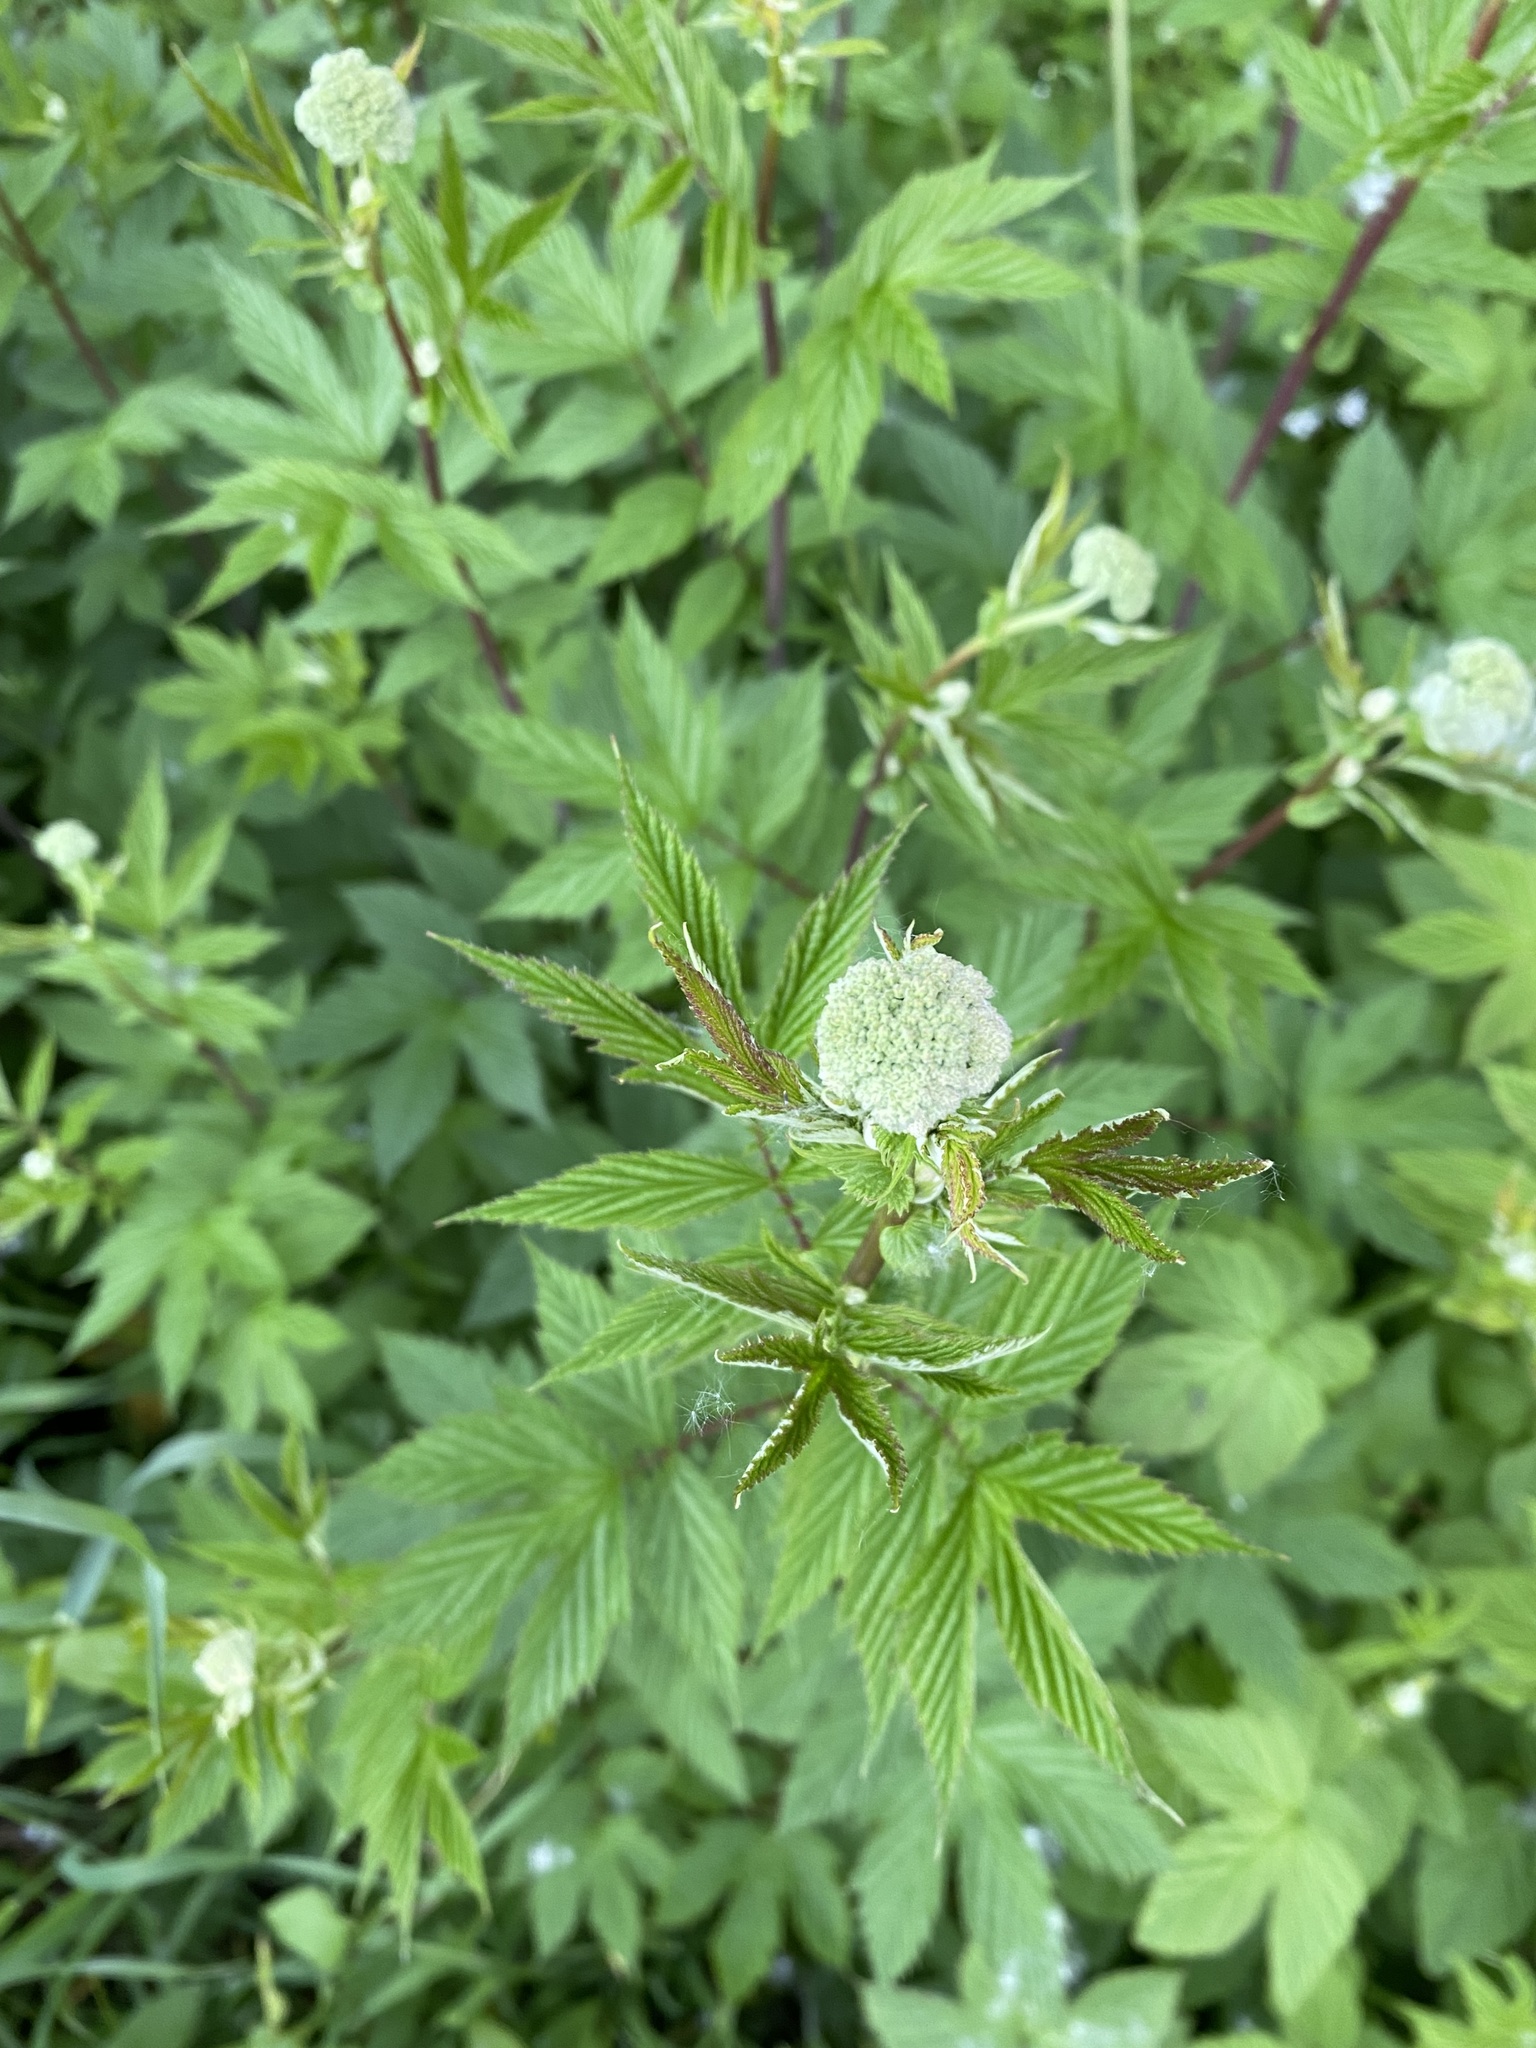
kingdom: Plantae
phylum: Tracheophyta
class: Magnoliopsida
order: Rosales
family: Rosaceae
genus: Filipendula
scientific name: Filipendula ulmaria
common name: Meadowsweet
